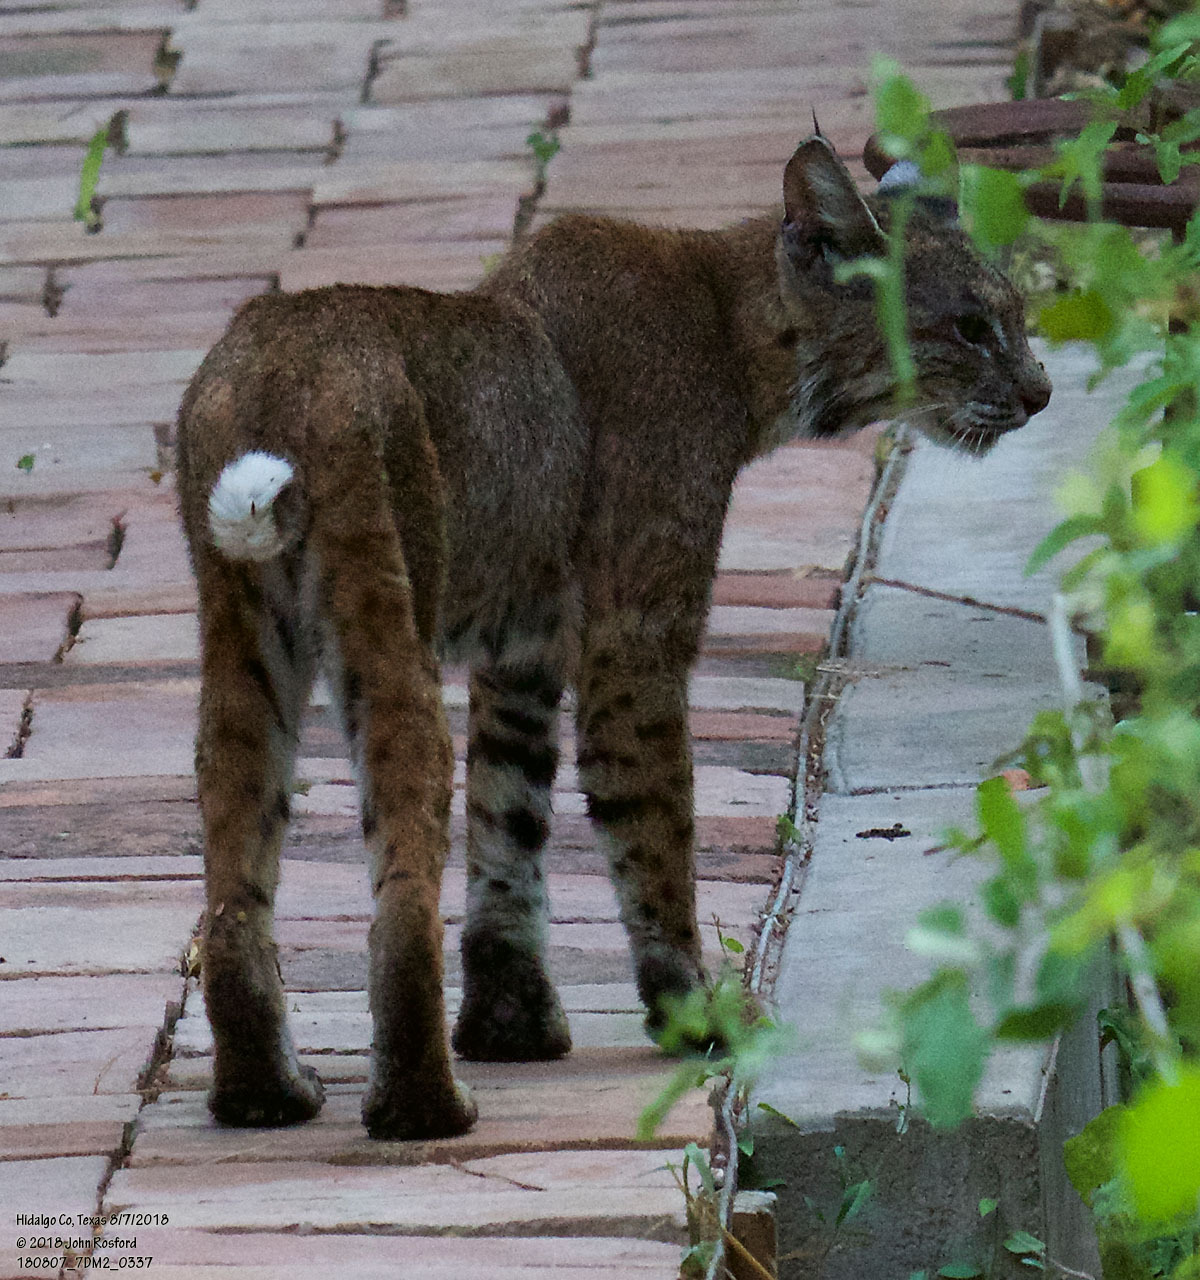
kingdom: Animalia
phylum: Chordata
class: Mammalia
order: Carnivora
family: Felidae
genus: Lynx
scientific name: Lynx rufus
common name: Bobcat
